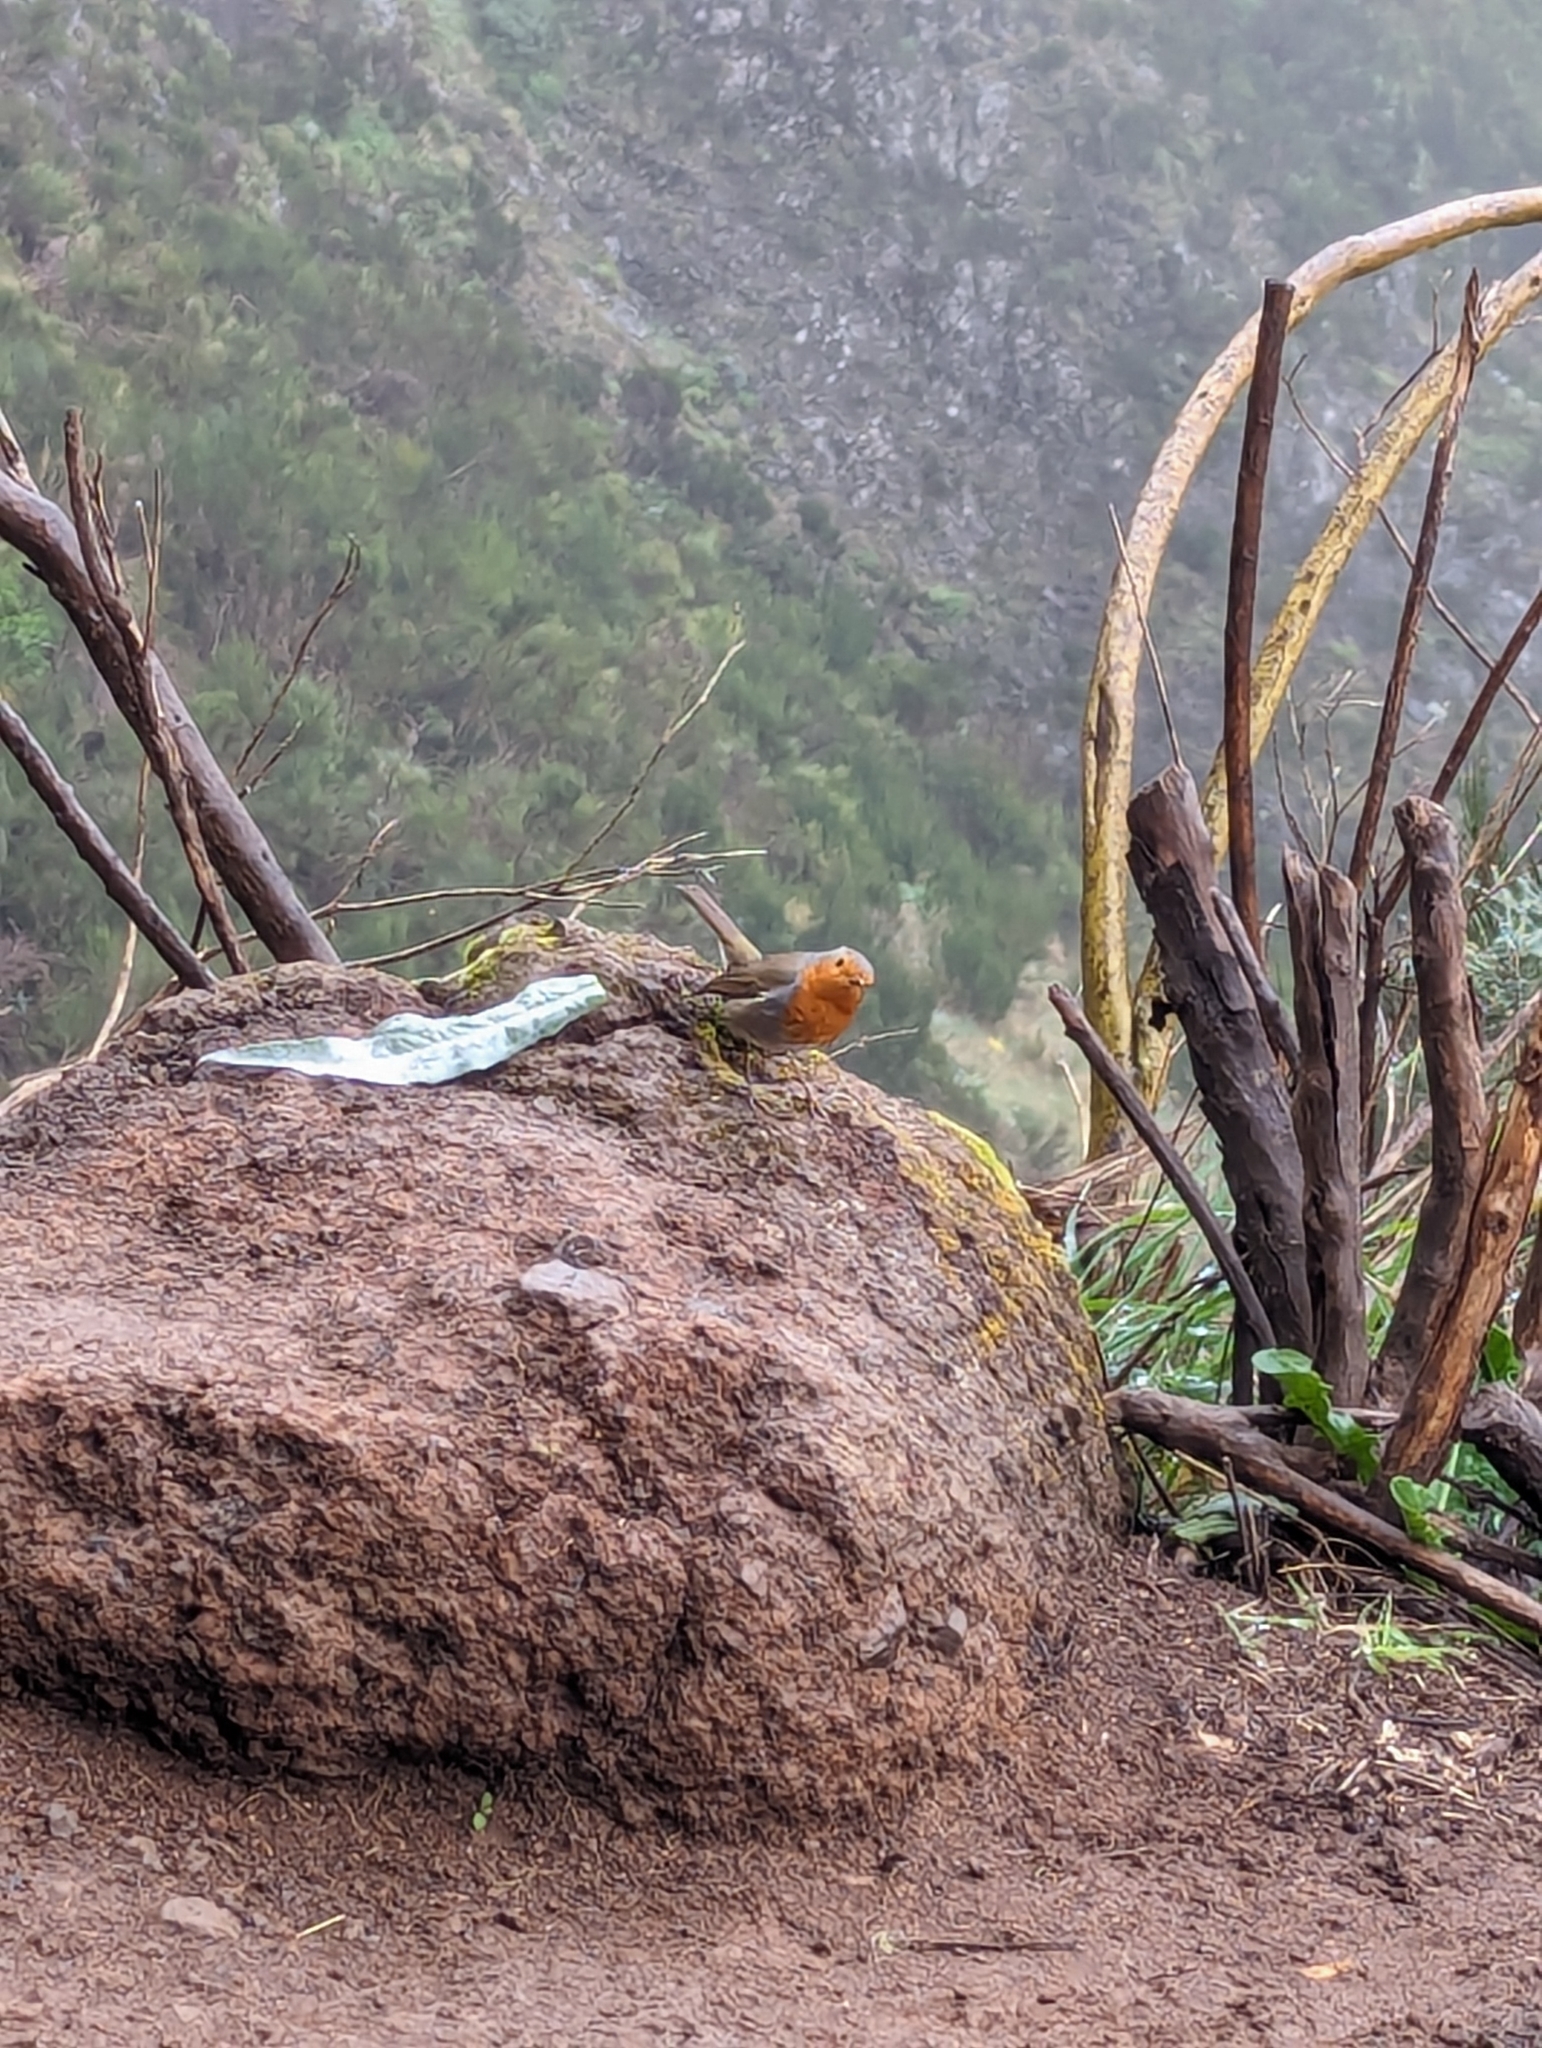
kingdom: Animalia
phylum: Chordata
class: Aves
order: Passeriformes
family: Muscicapidae
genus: Erithacus
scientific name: Erithacus rubecula
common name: European robin
